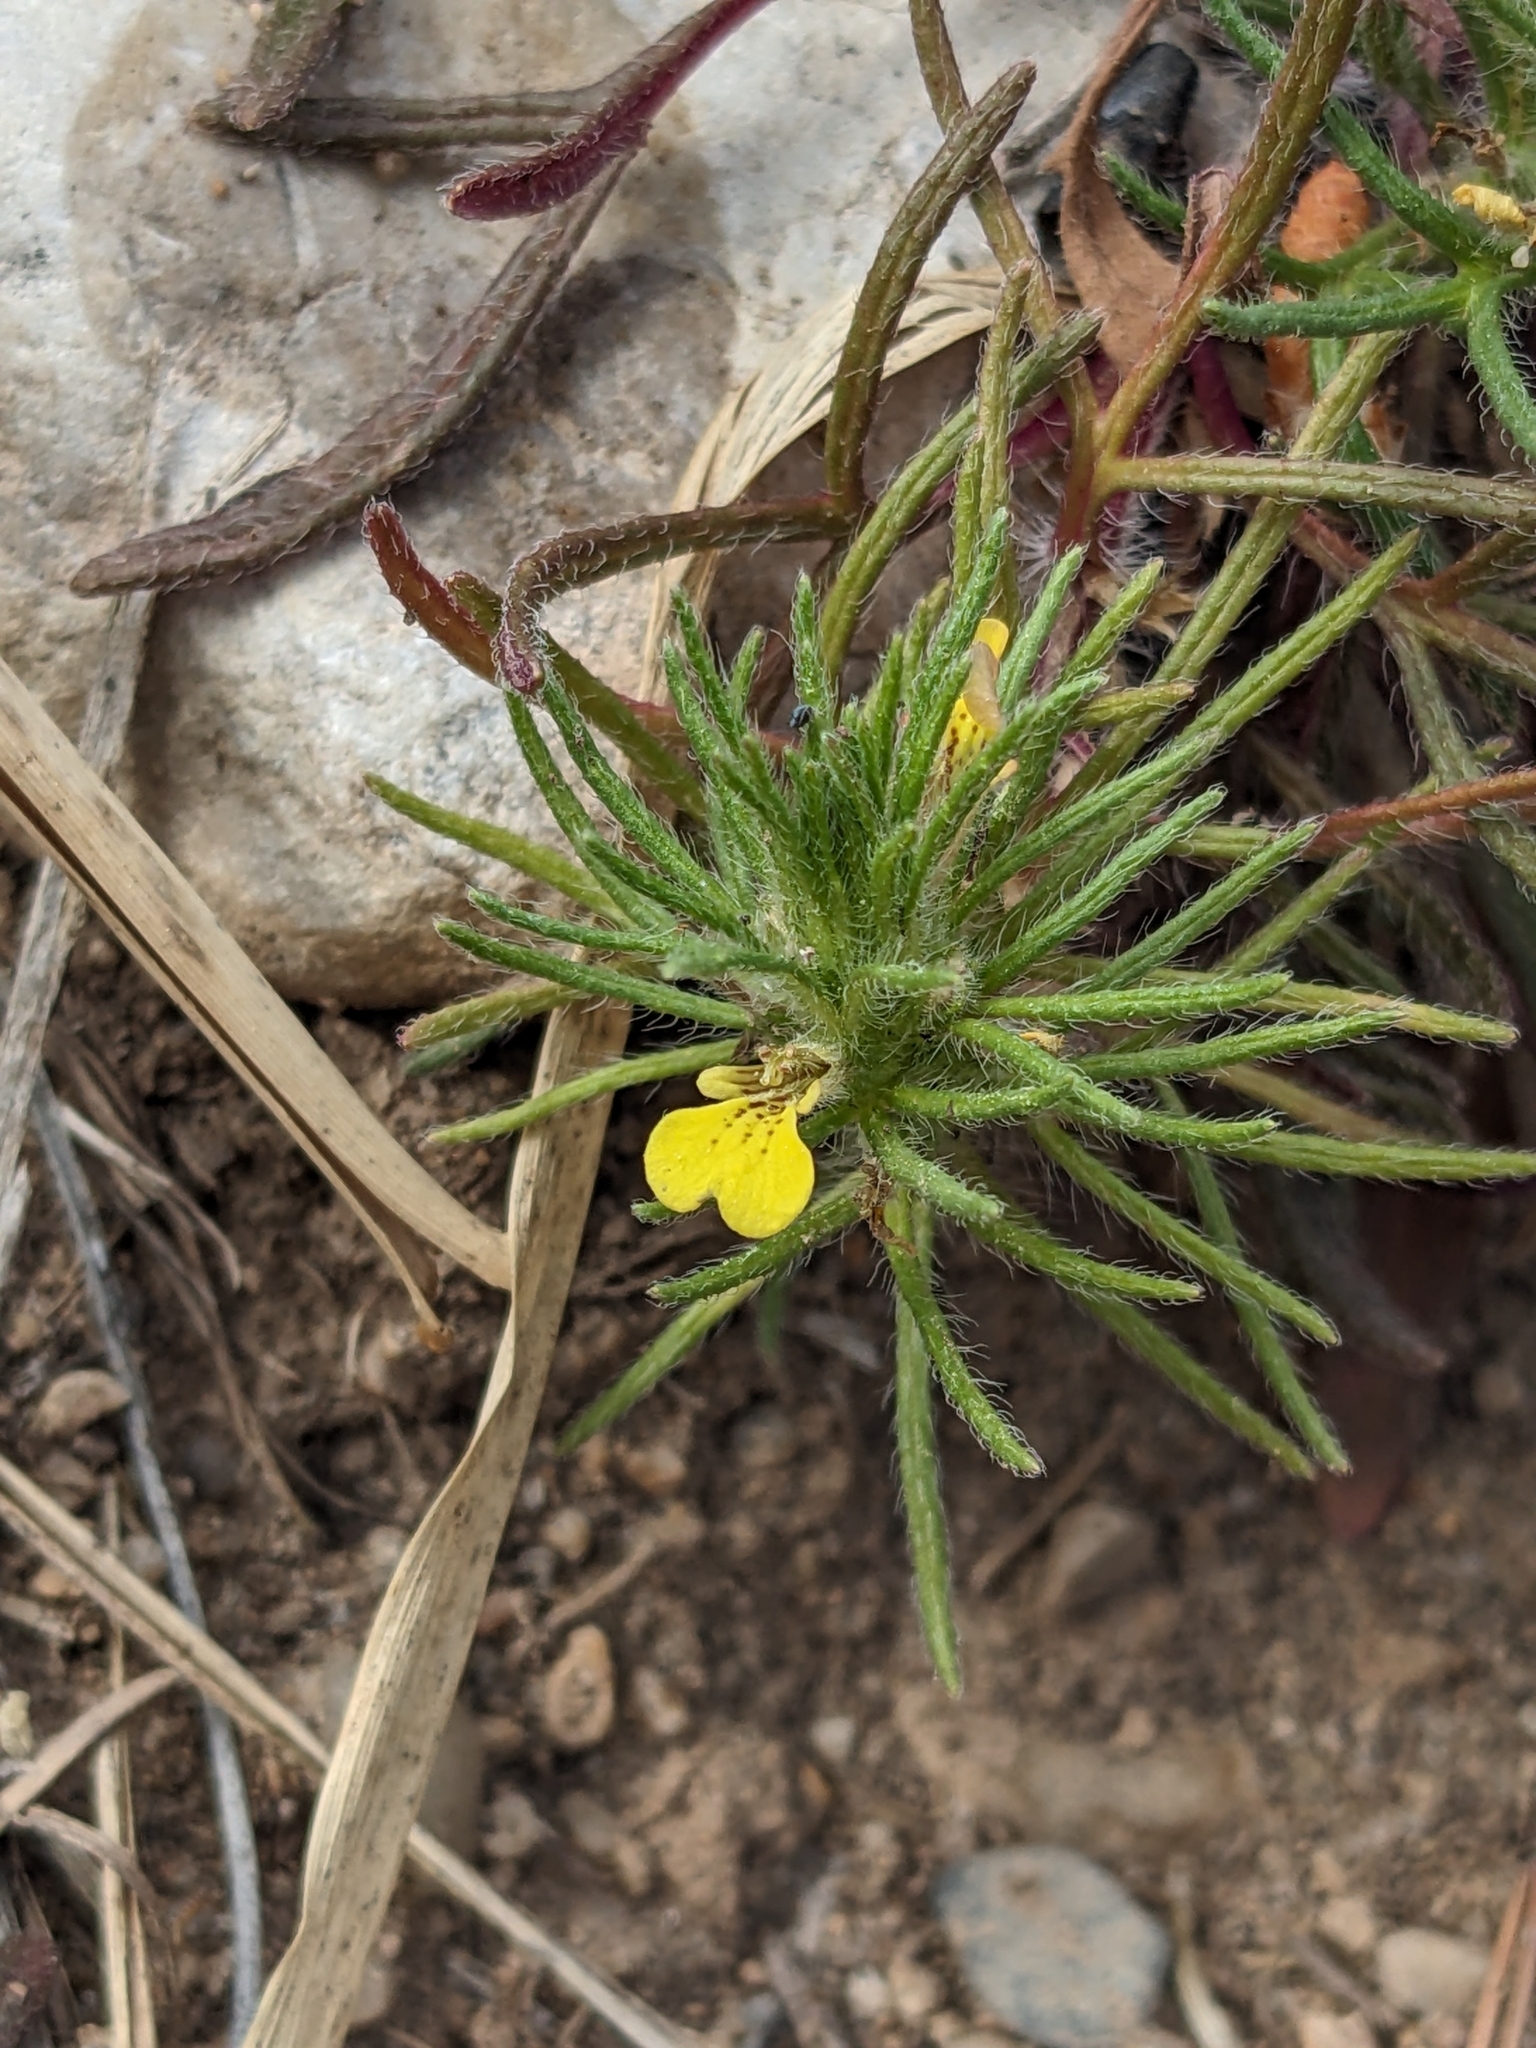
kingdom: Plantae
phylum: Tracheophyta
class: Magnoliopsida
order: Lamiales
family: Lamiaceae
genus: Ajuga
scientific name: Ajuga chamaepitys
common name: Ground-pine
